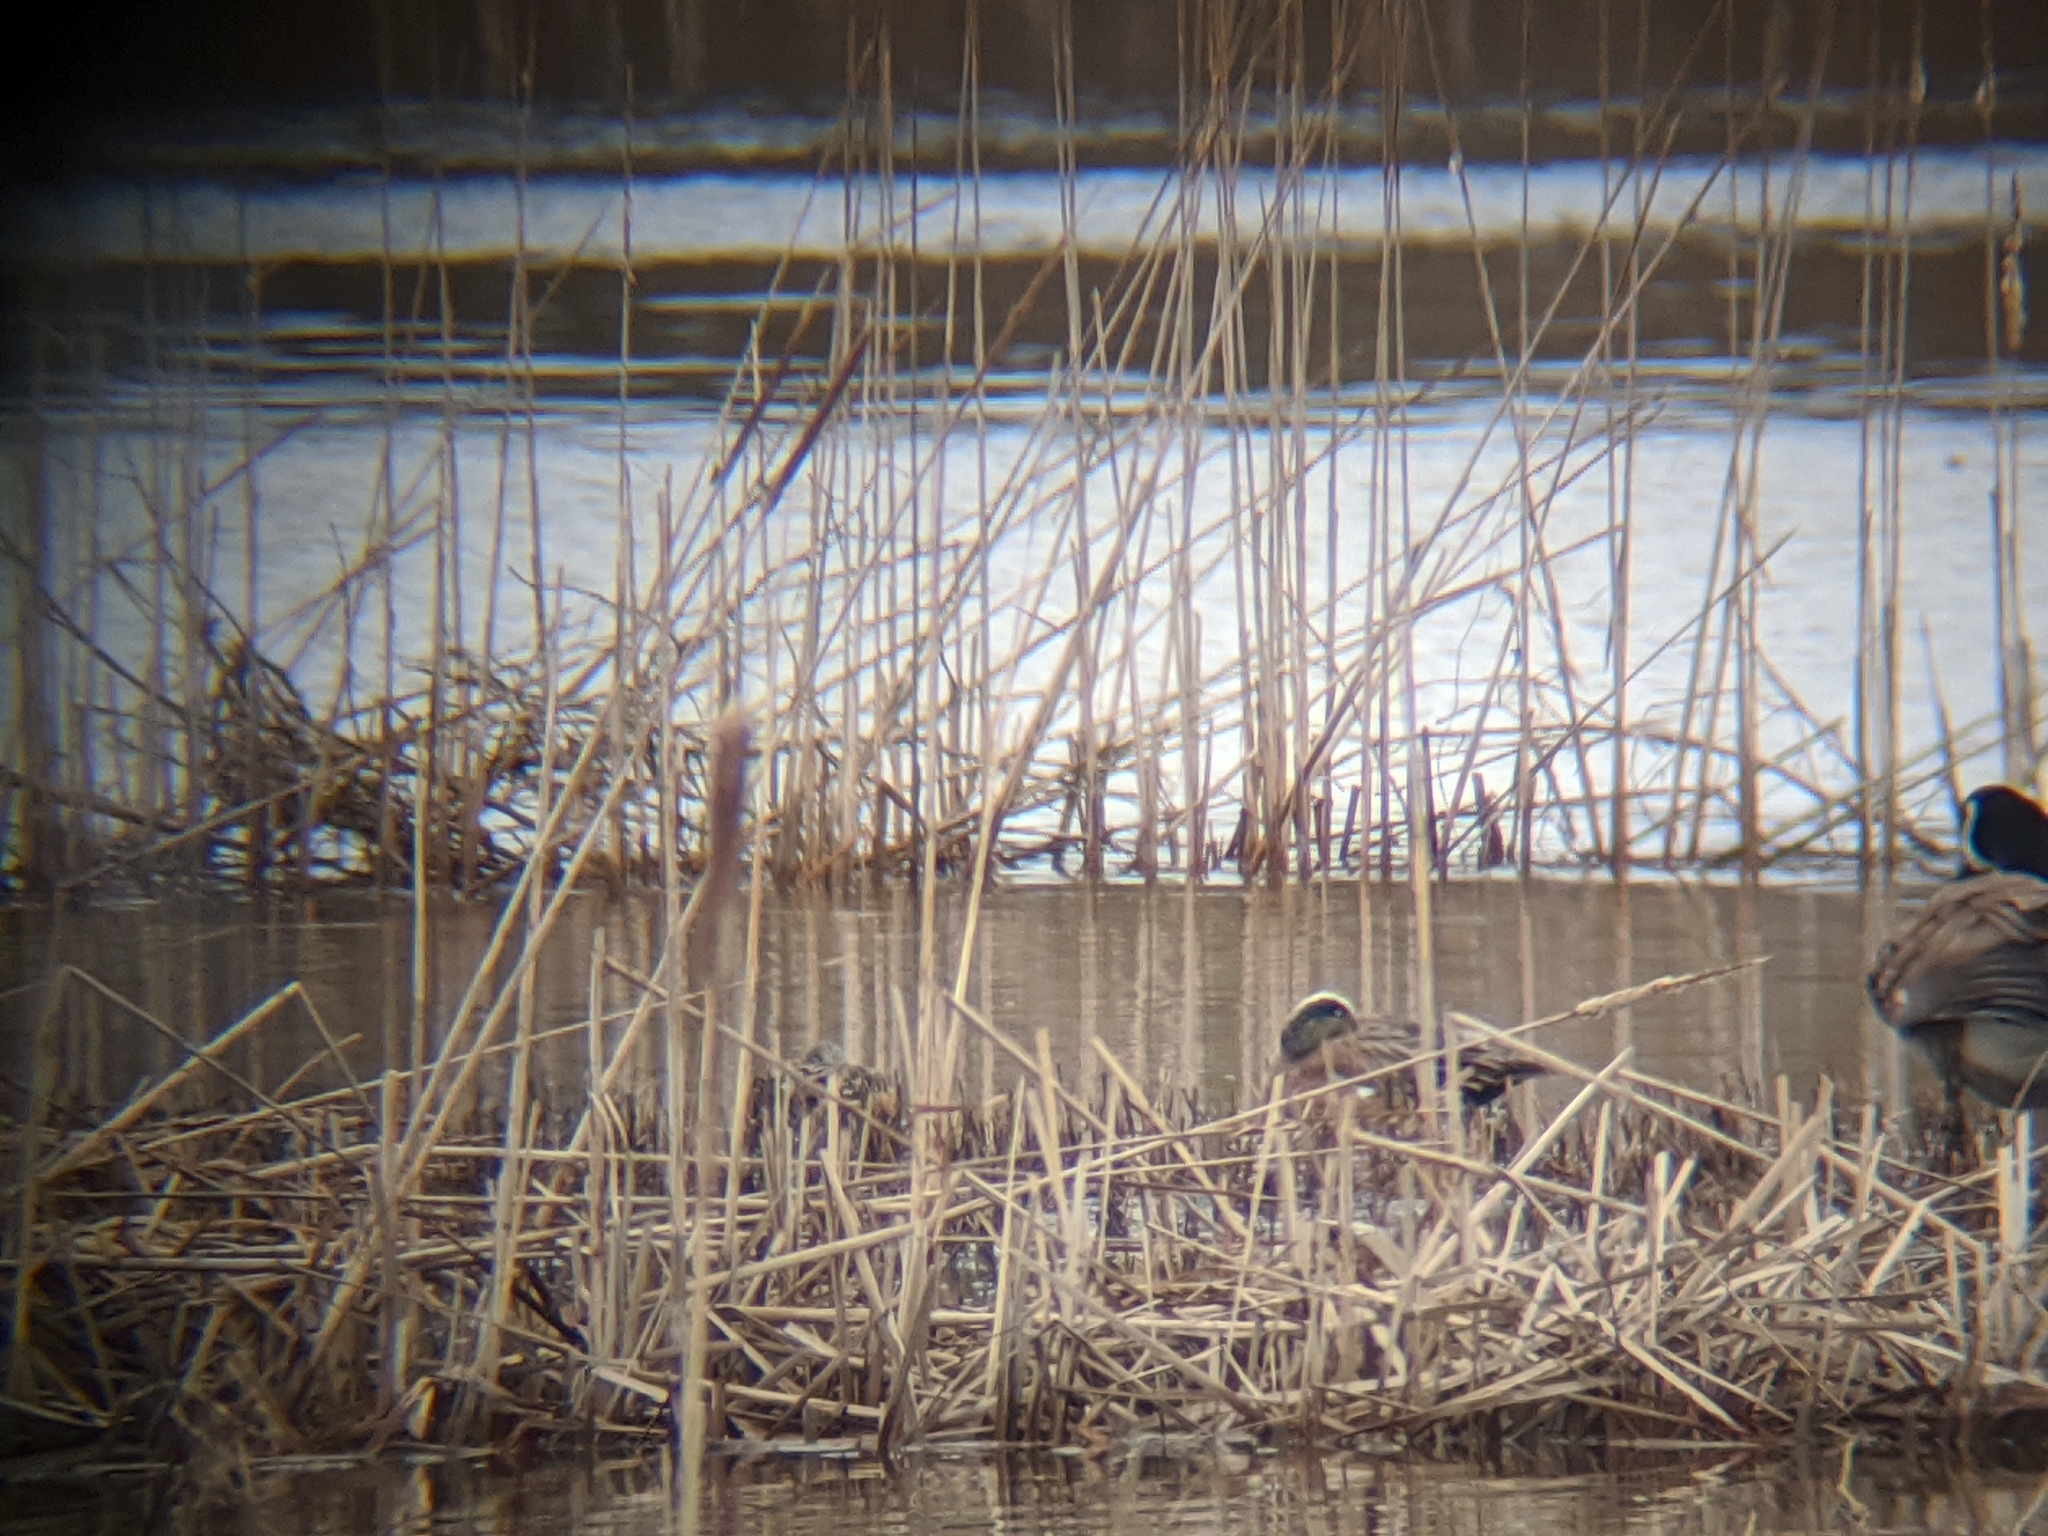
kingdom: Animalia
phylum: Chordata
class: Aves
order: Anseriformes
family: Anatidae
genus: Mareca
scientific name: Mareca americana
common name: American wigeon
